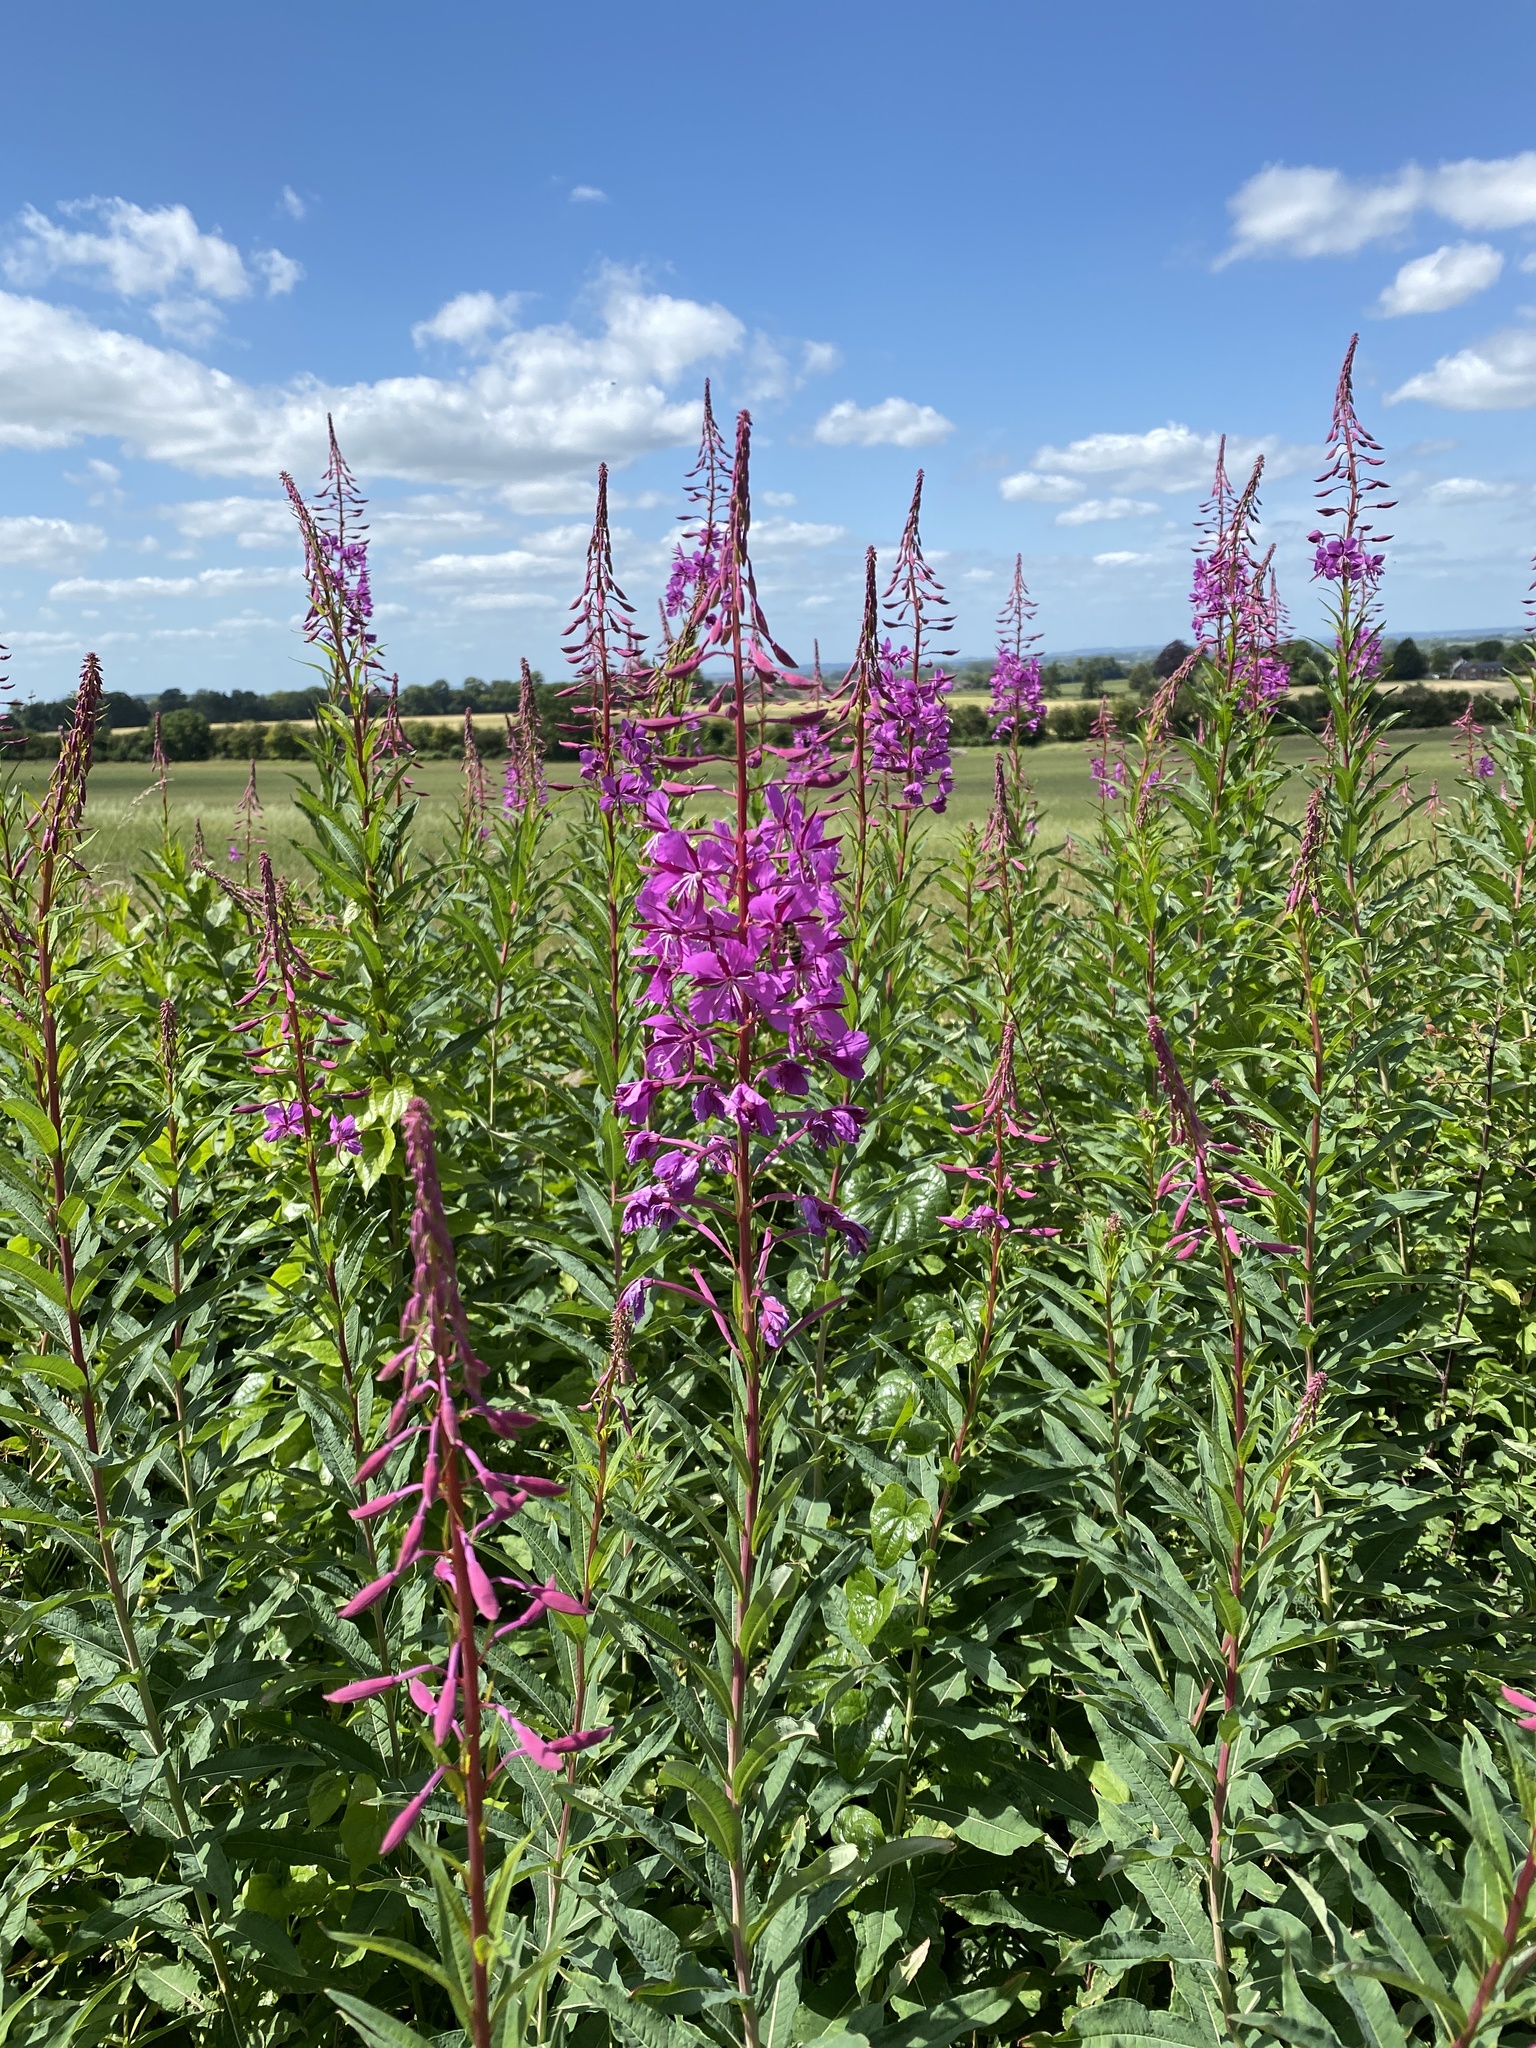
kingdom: Plantae
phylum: Tracheophyta
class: Magnoliopsida
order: Myrtales
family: Onagraceae
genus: Chamaenerion
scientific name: Chamaenerion angustifolium
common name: Fireweed
